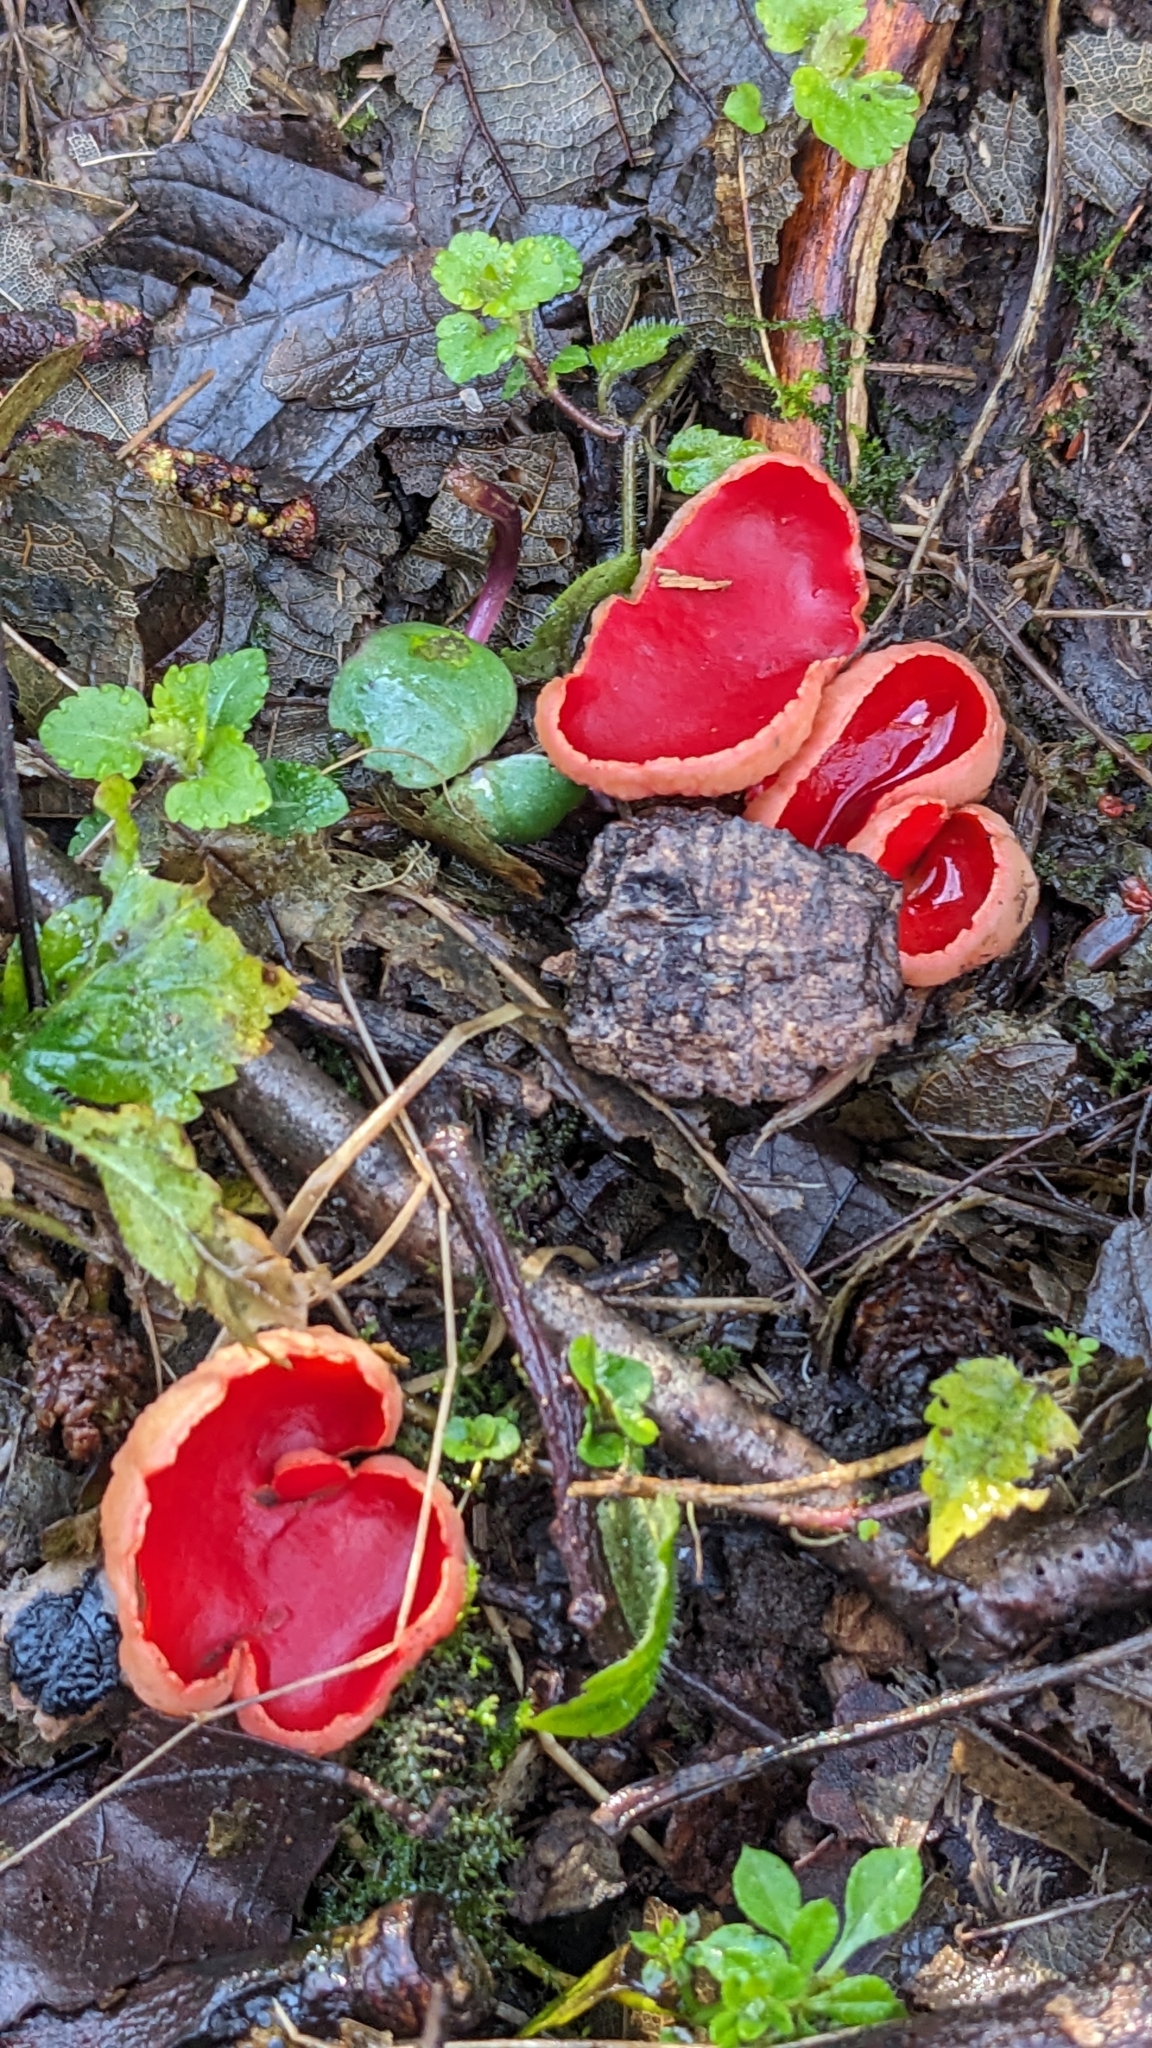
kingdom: Fungi
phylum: Ascomycota
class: Pezizomycetes
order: Pezizales
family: Sarcoscyphaceae
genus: Sarcoscypha
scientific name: Sarcoscypha
